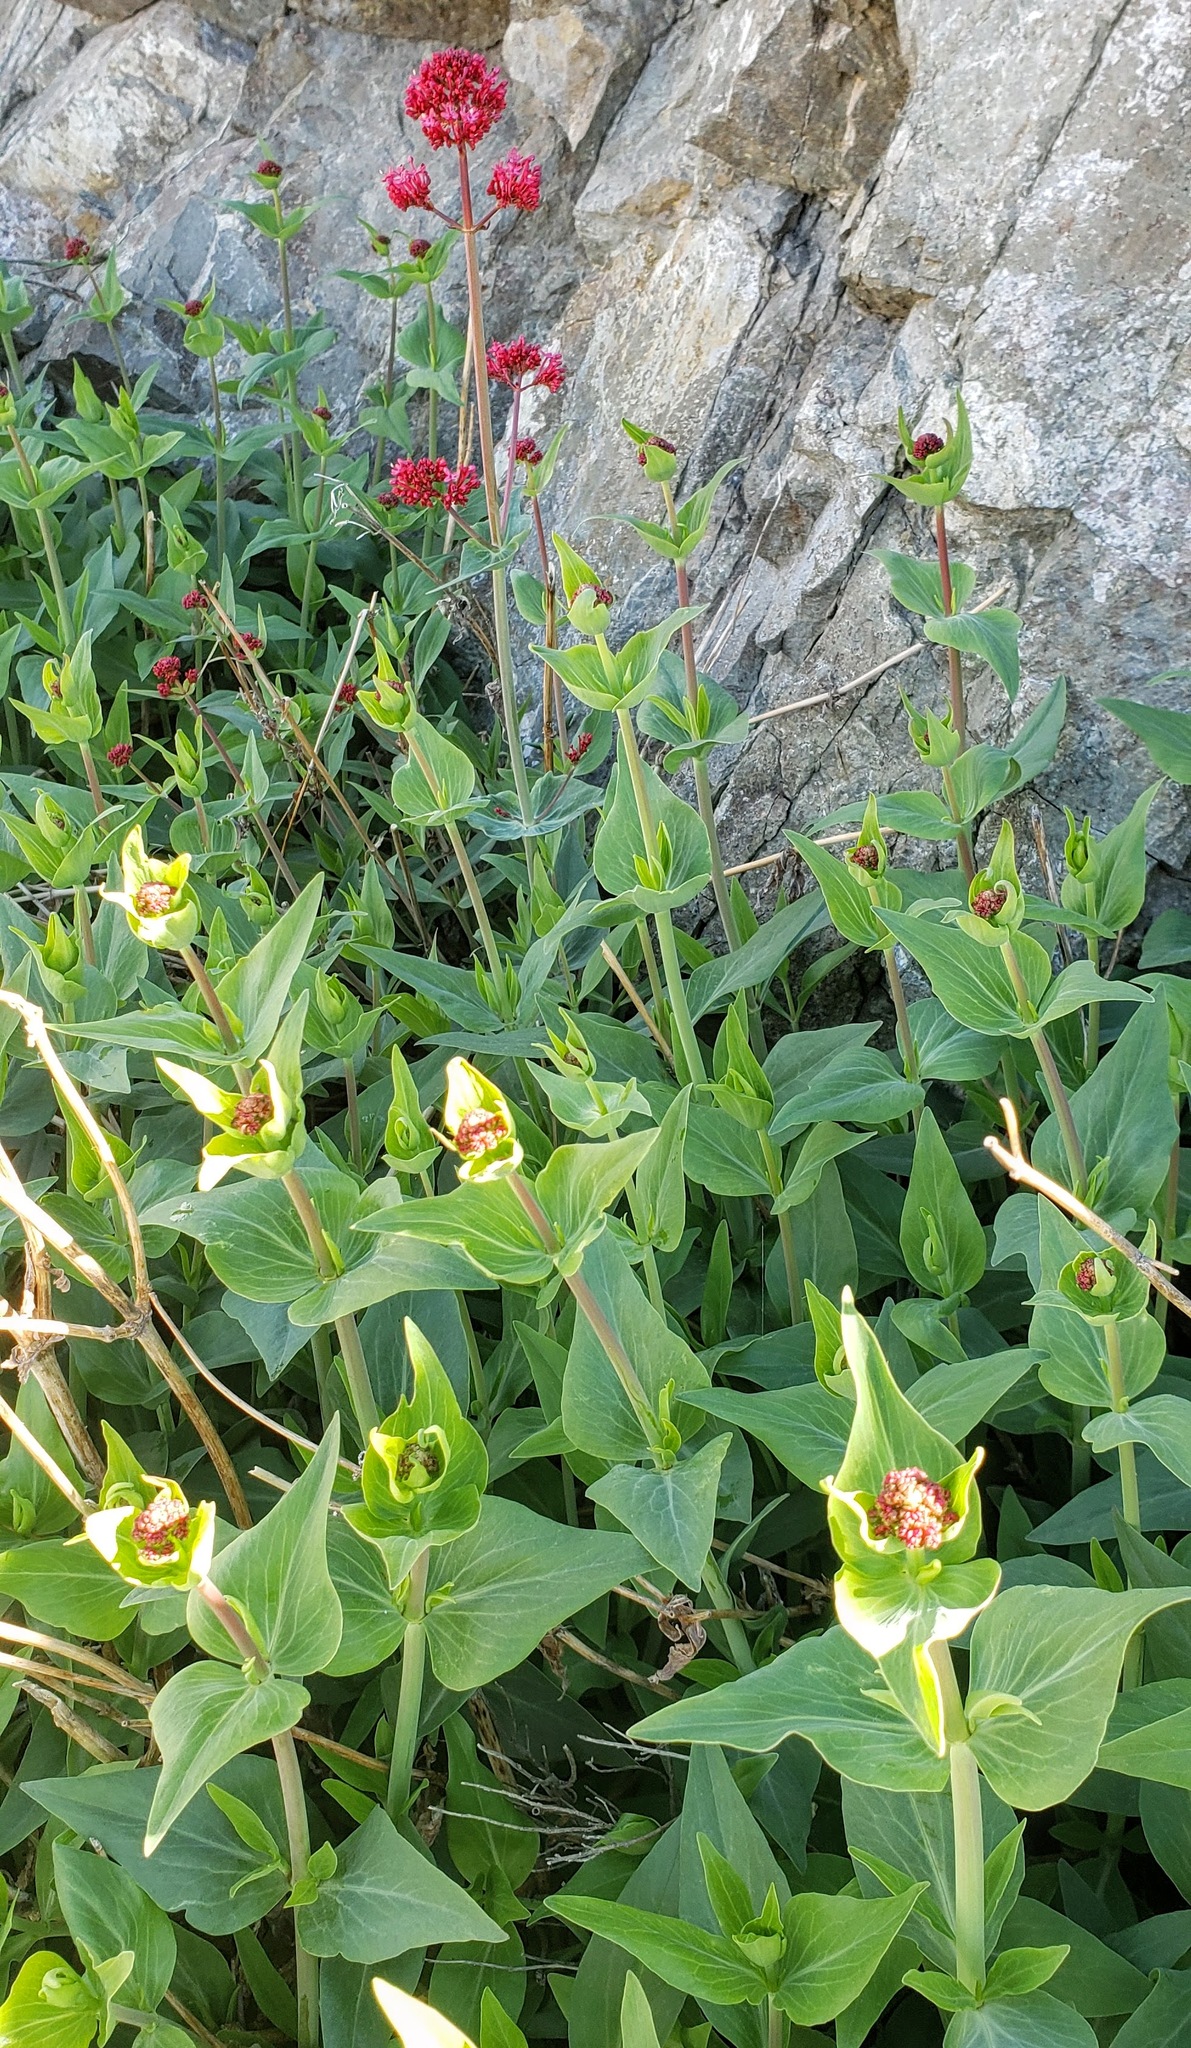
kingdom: Plantae
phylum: Tracheophyta
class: Magnoliopsida
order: Dipsacales
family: Caprifoliaceae
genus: Centranthus
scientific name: Centranthus ruber
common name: Red valerian
